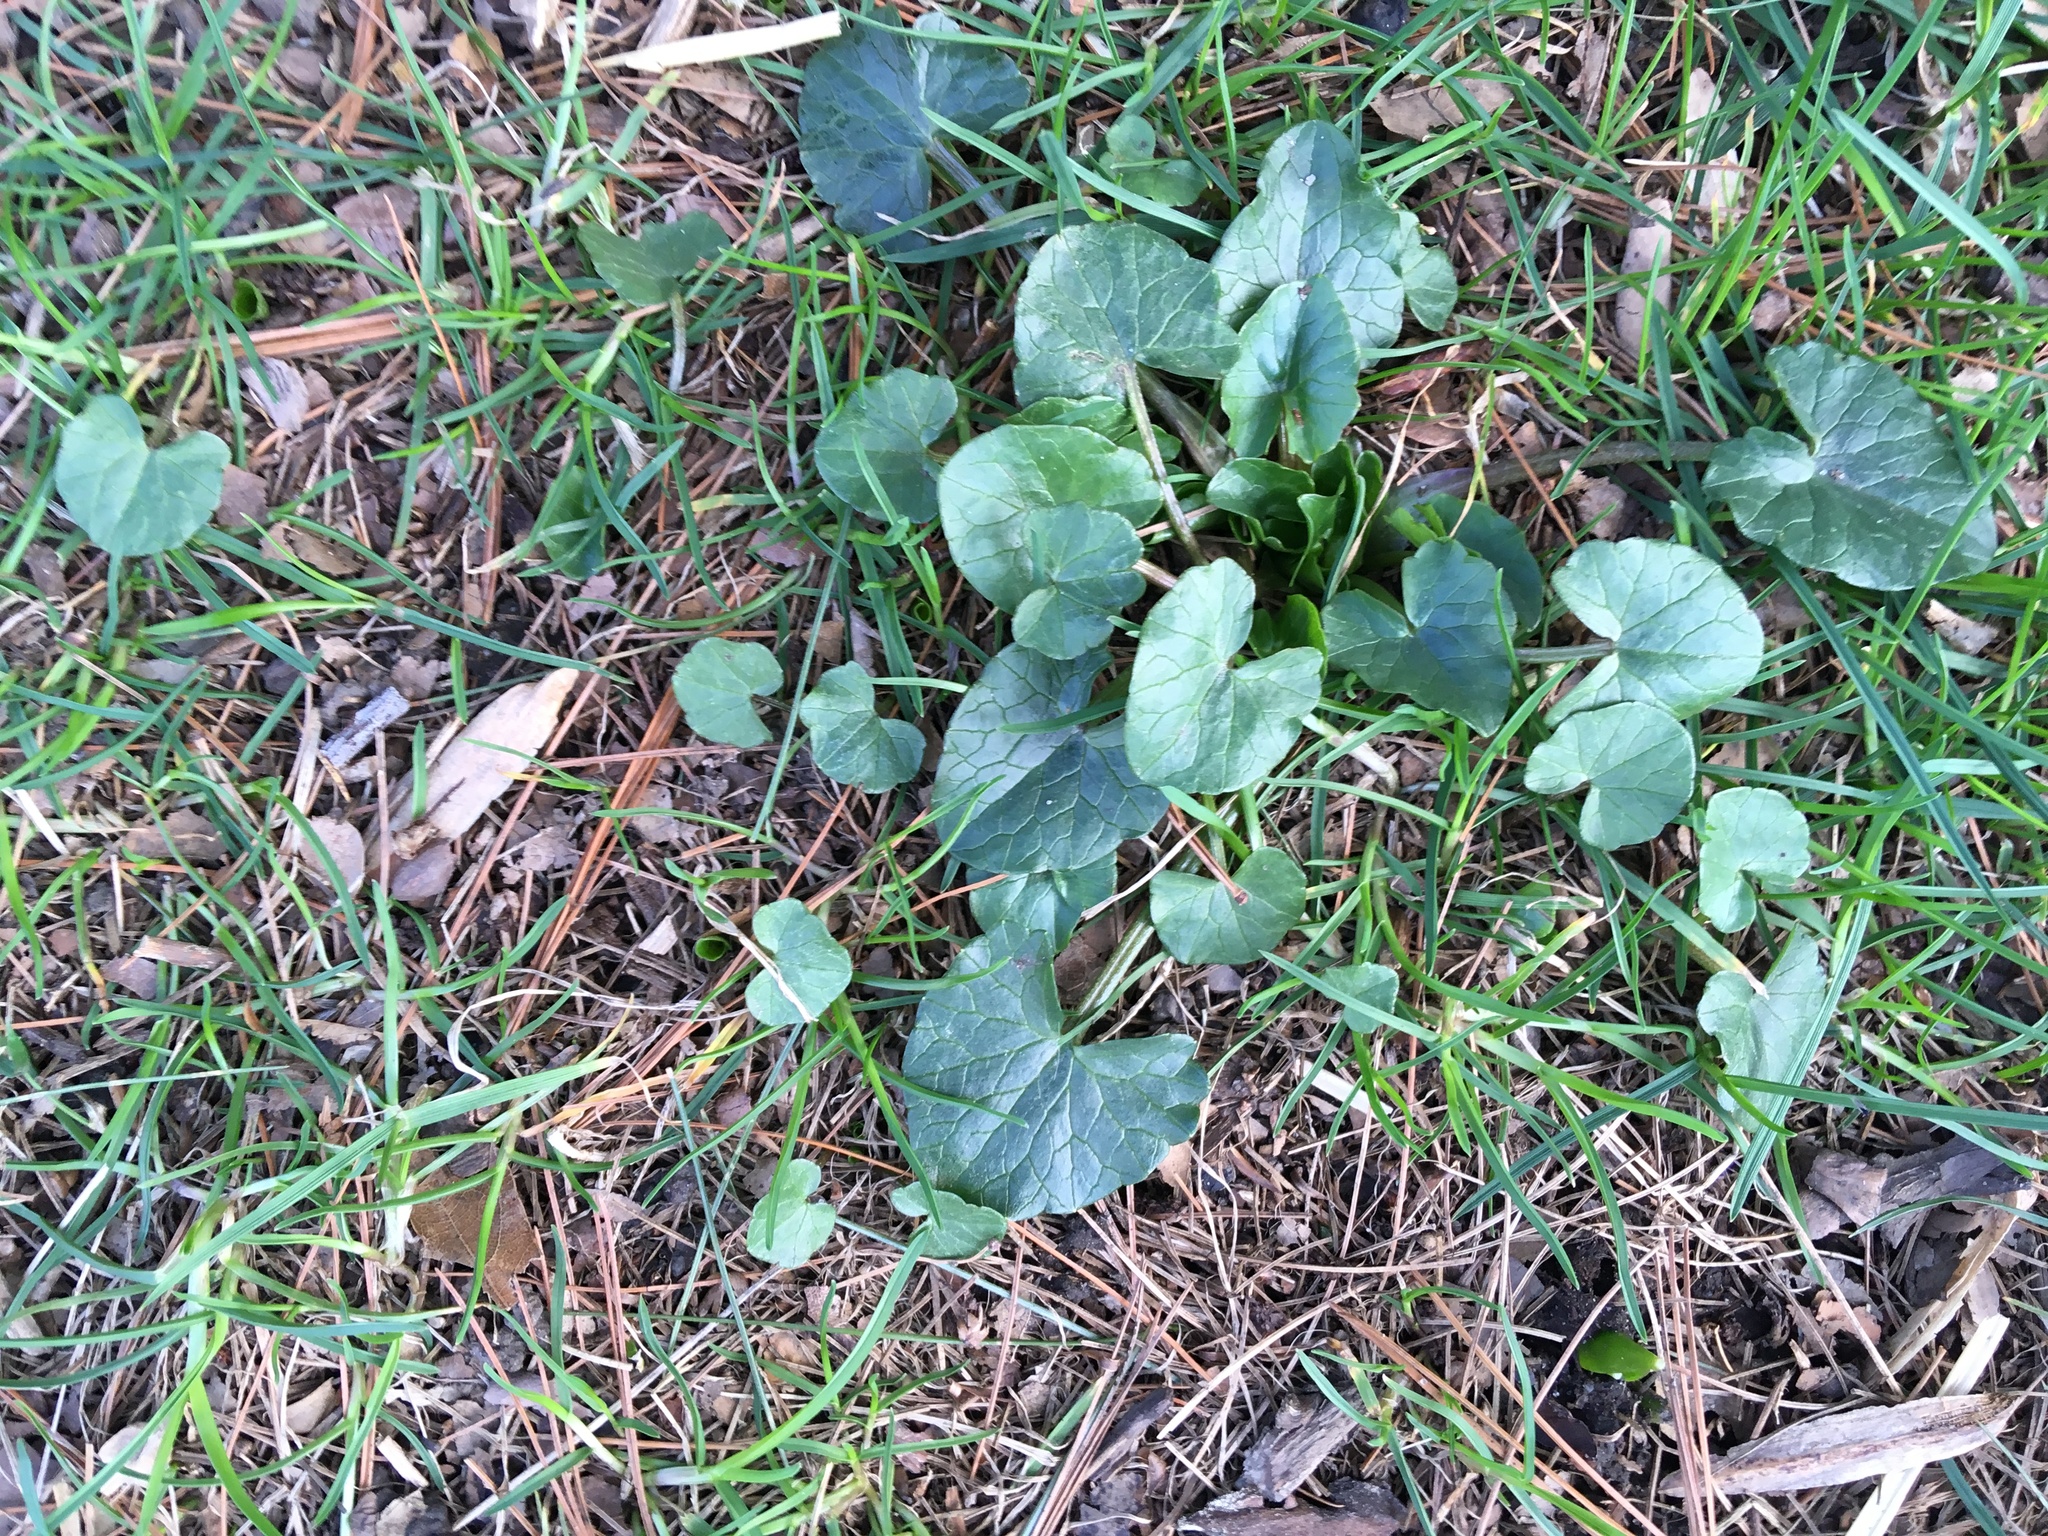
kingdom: Plantae
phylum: Tracheophyta
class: Magnoliopsida
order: Ranunculales
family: Ranunculaceae
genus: Ficaria
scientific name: Ficaria verna
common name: Lesser celandine
